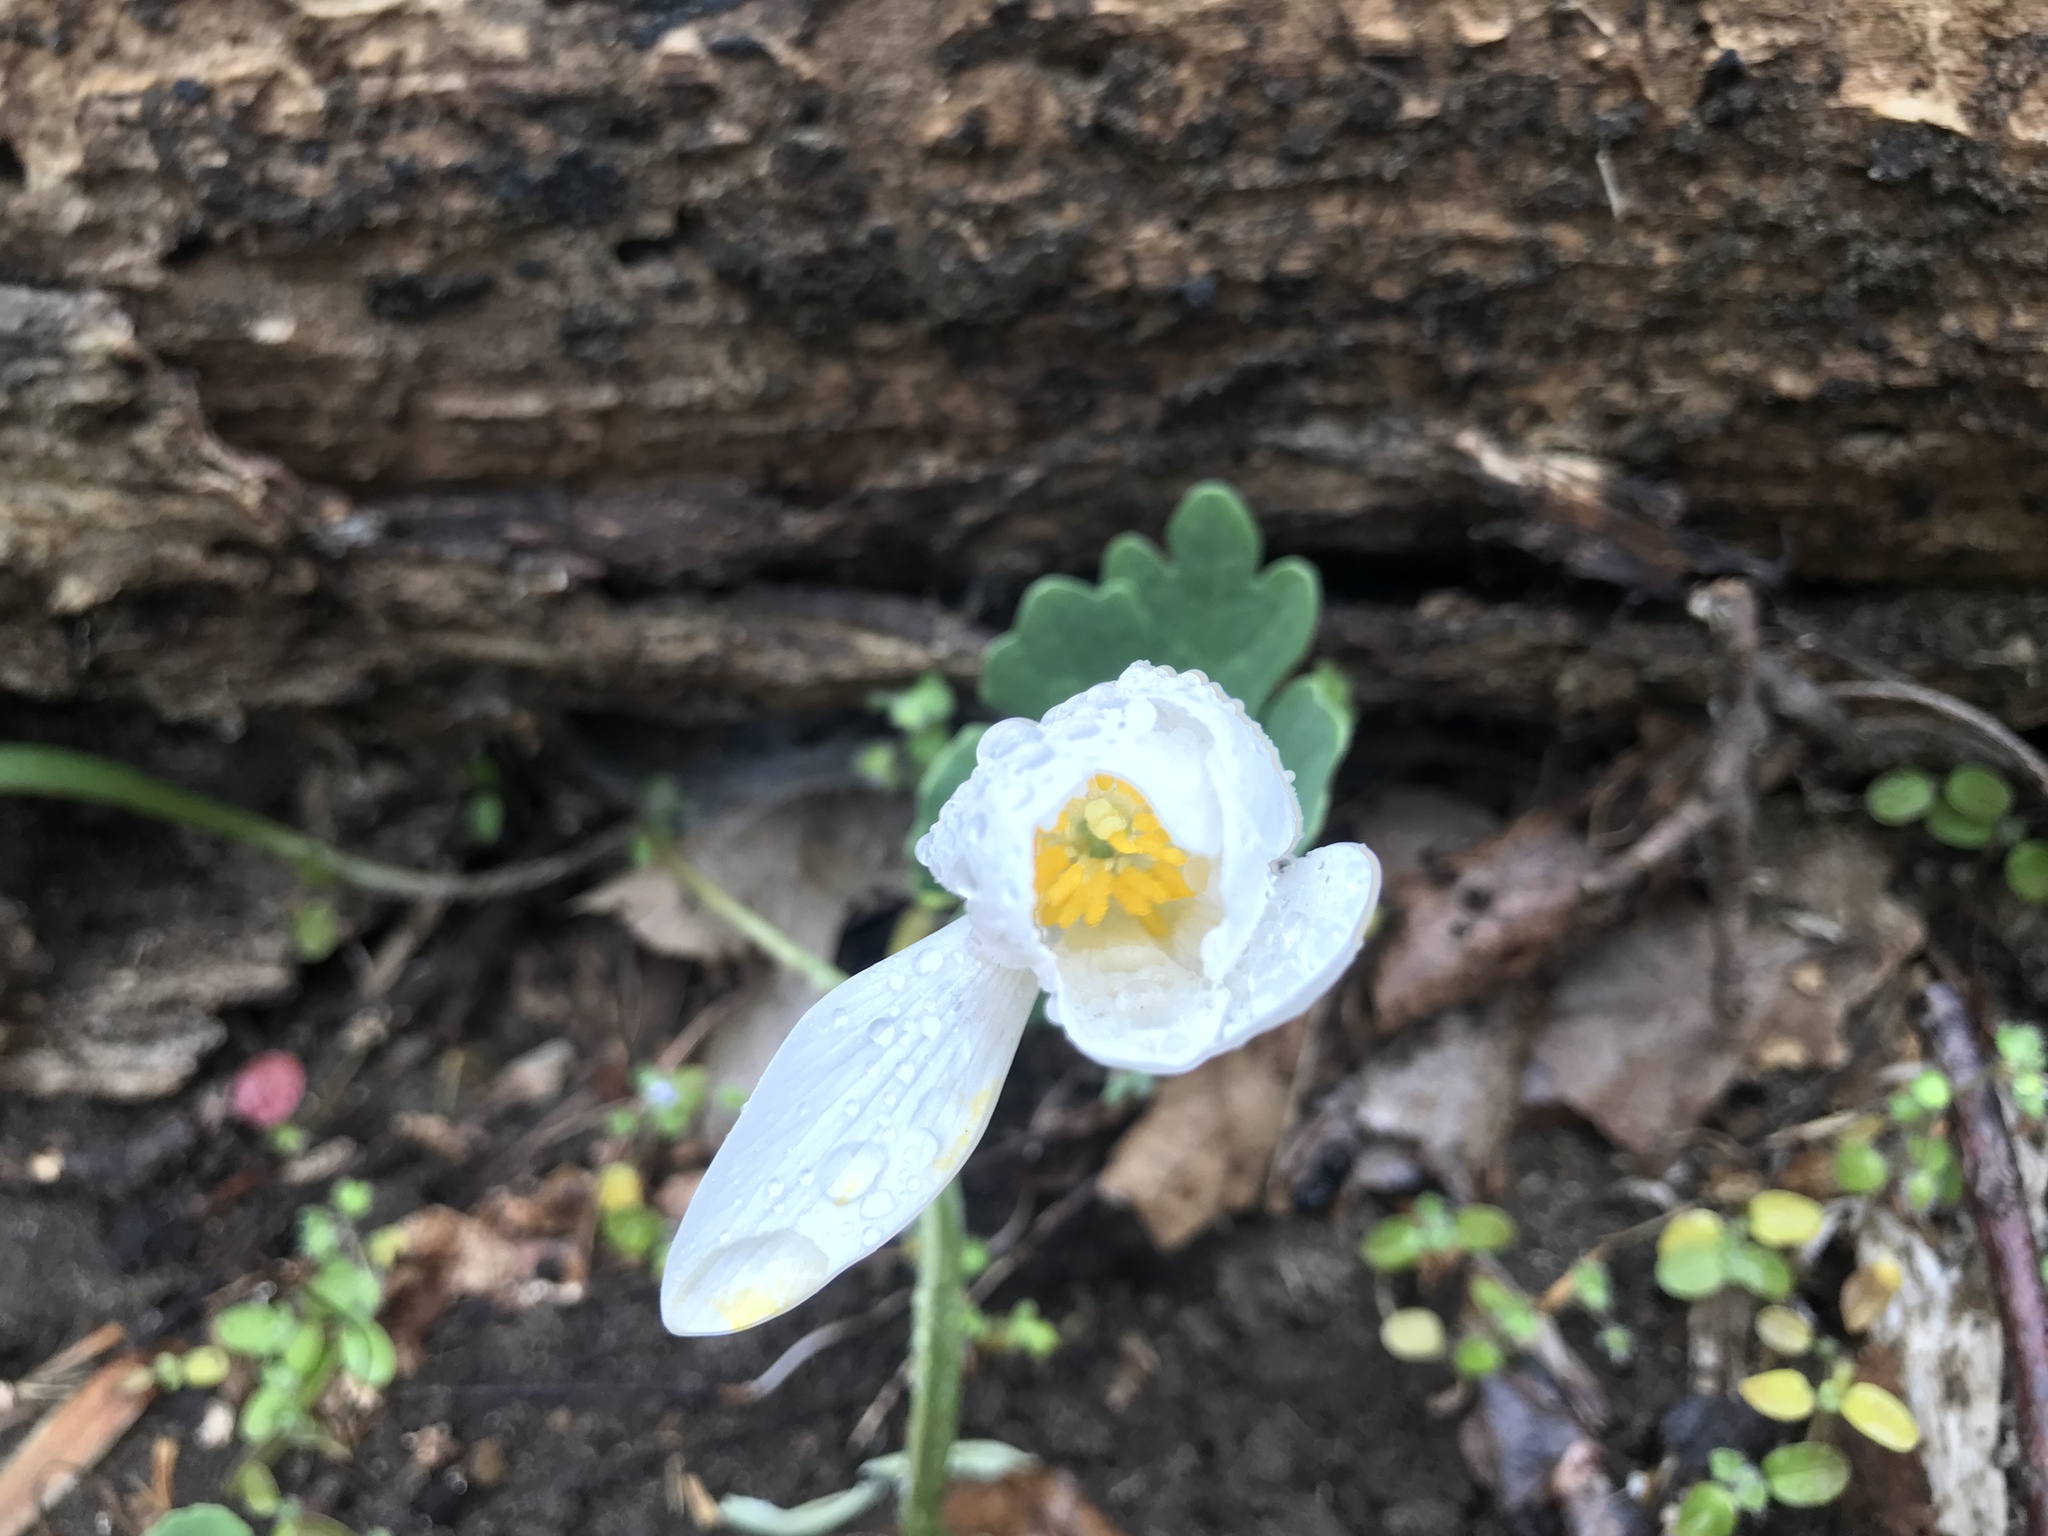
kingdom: Plantae
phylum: Tracheophyta
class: Magnoliopsida
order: Ranunculales
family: Papaveraceae
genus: Sanguinaria
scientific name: Sanguinaria canadensis
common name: Bloodroot
